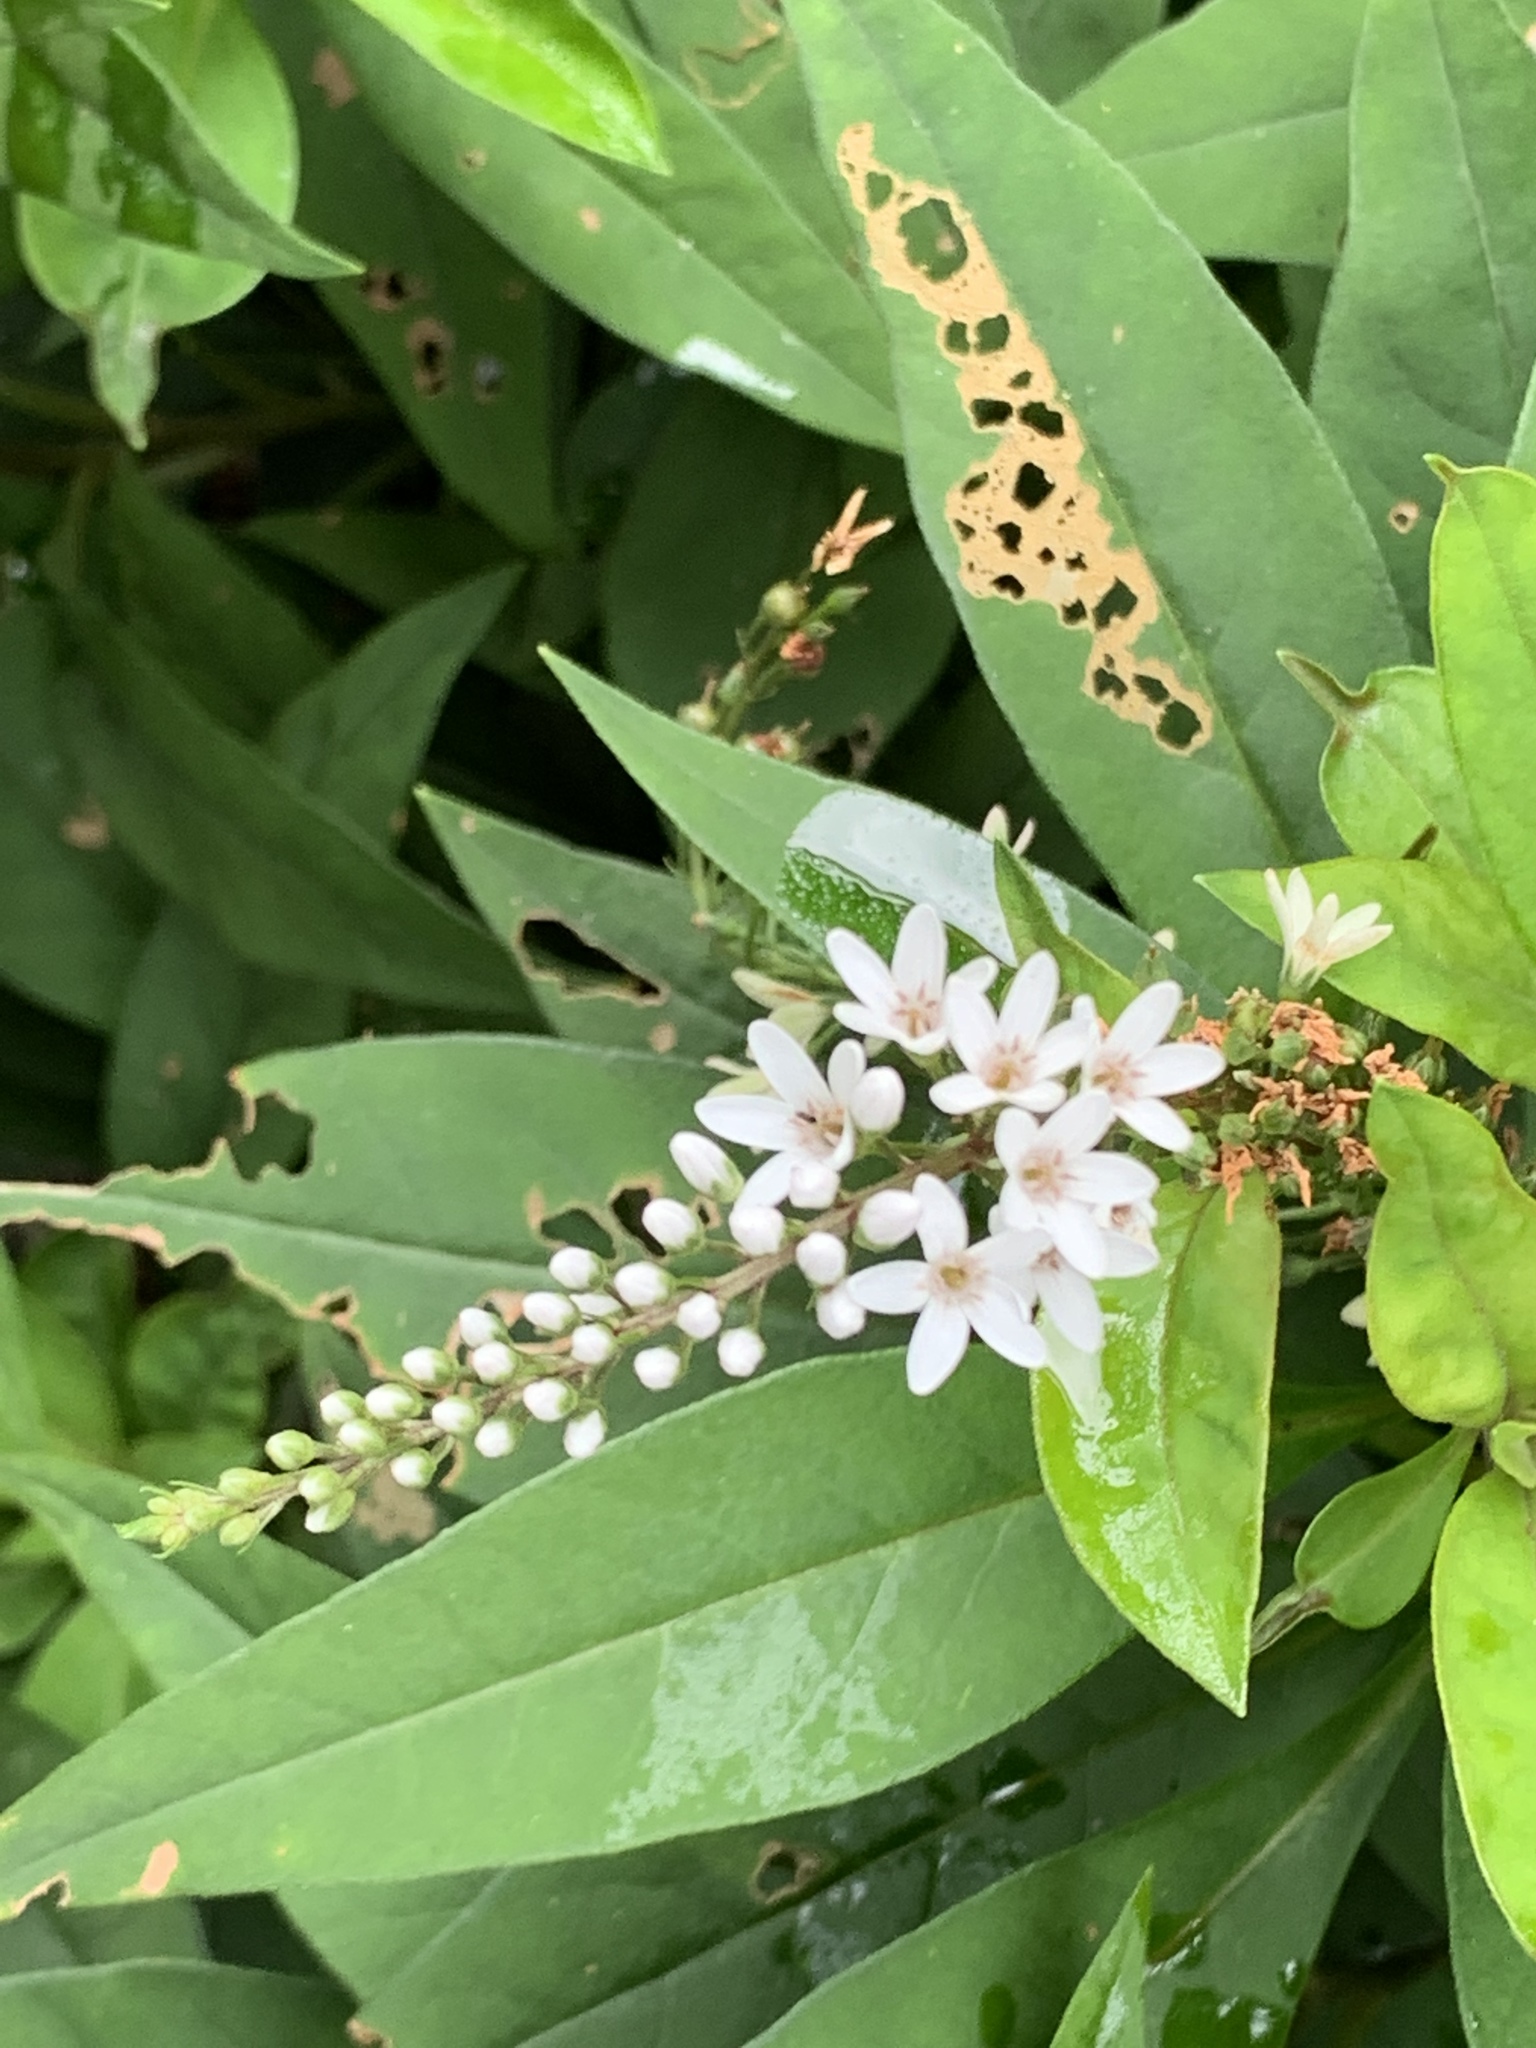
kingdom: Plantae
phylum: Tracheophyta
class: Magnoliopsida
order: Ericales
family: Primulaceae
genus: Lysimachia
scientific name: Lysimachia clethroides
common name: Gooseneck loosestrife
